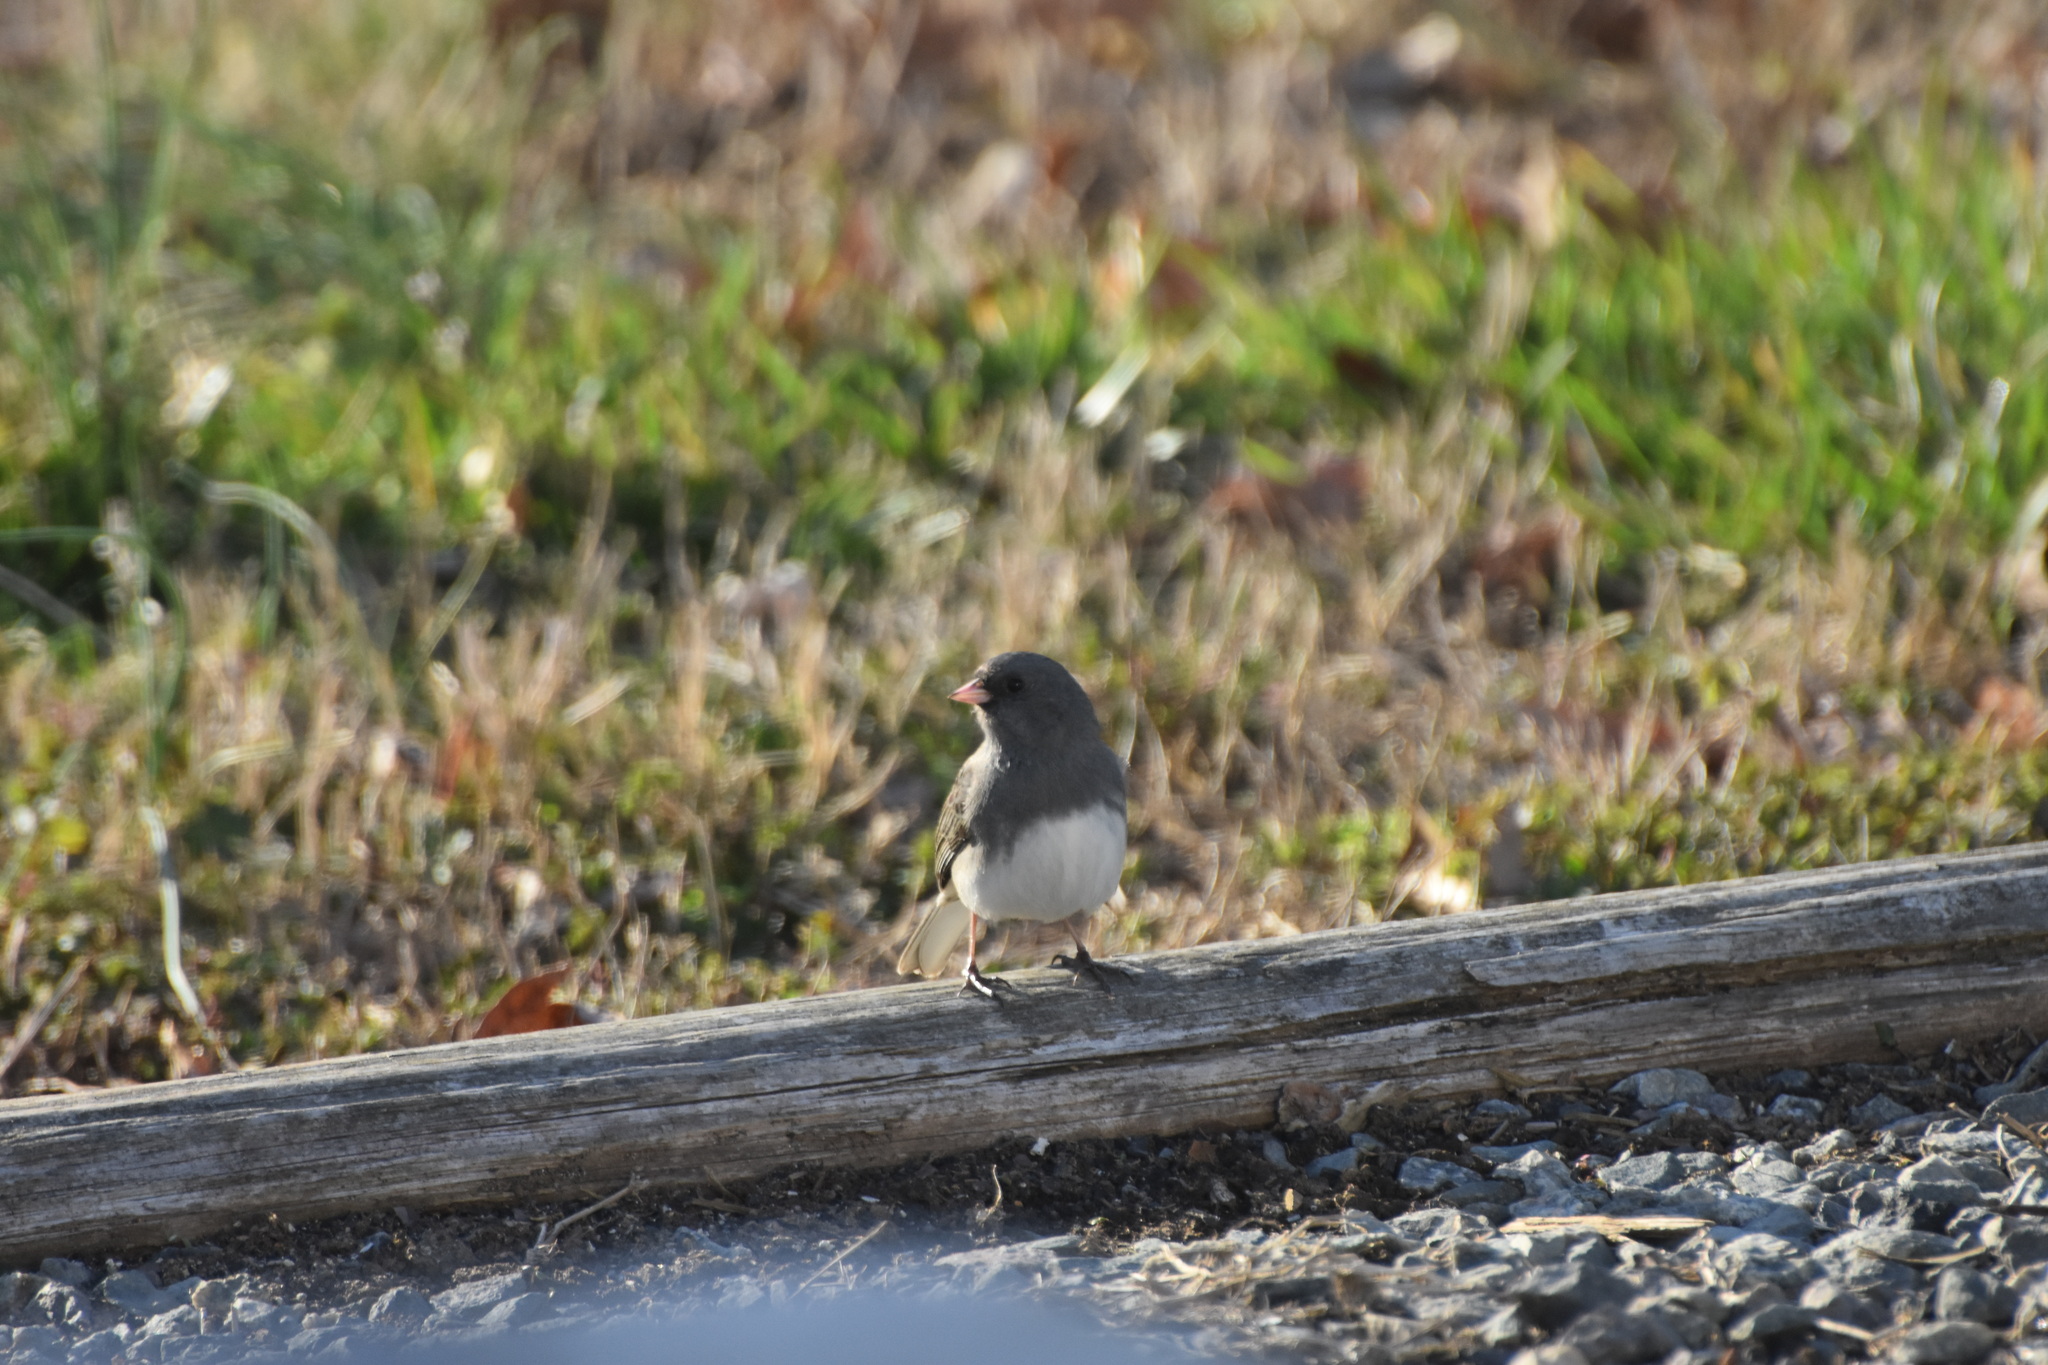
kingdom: Animalia
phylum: Chordata
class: Aves
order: Passeriformes
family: Passerellidae
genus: Junco
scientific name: Junco hyemalis
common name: Dark-eyed junco
